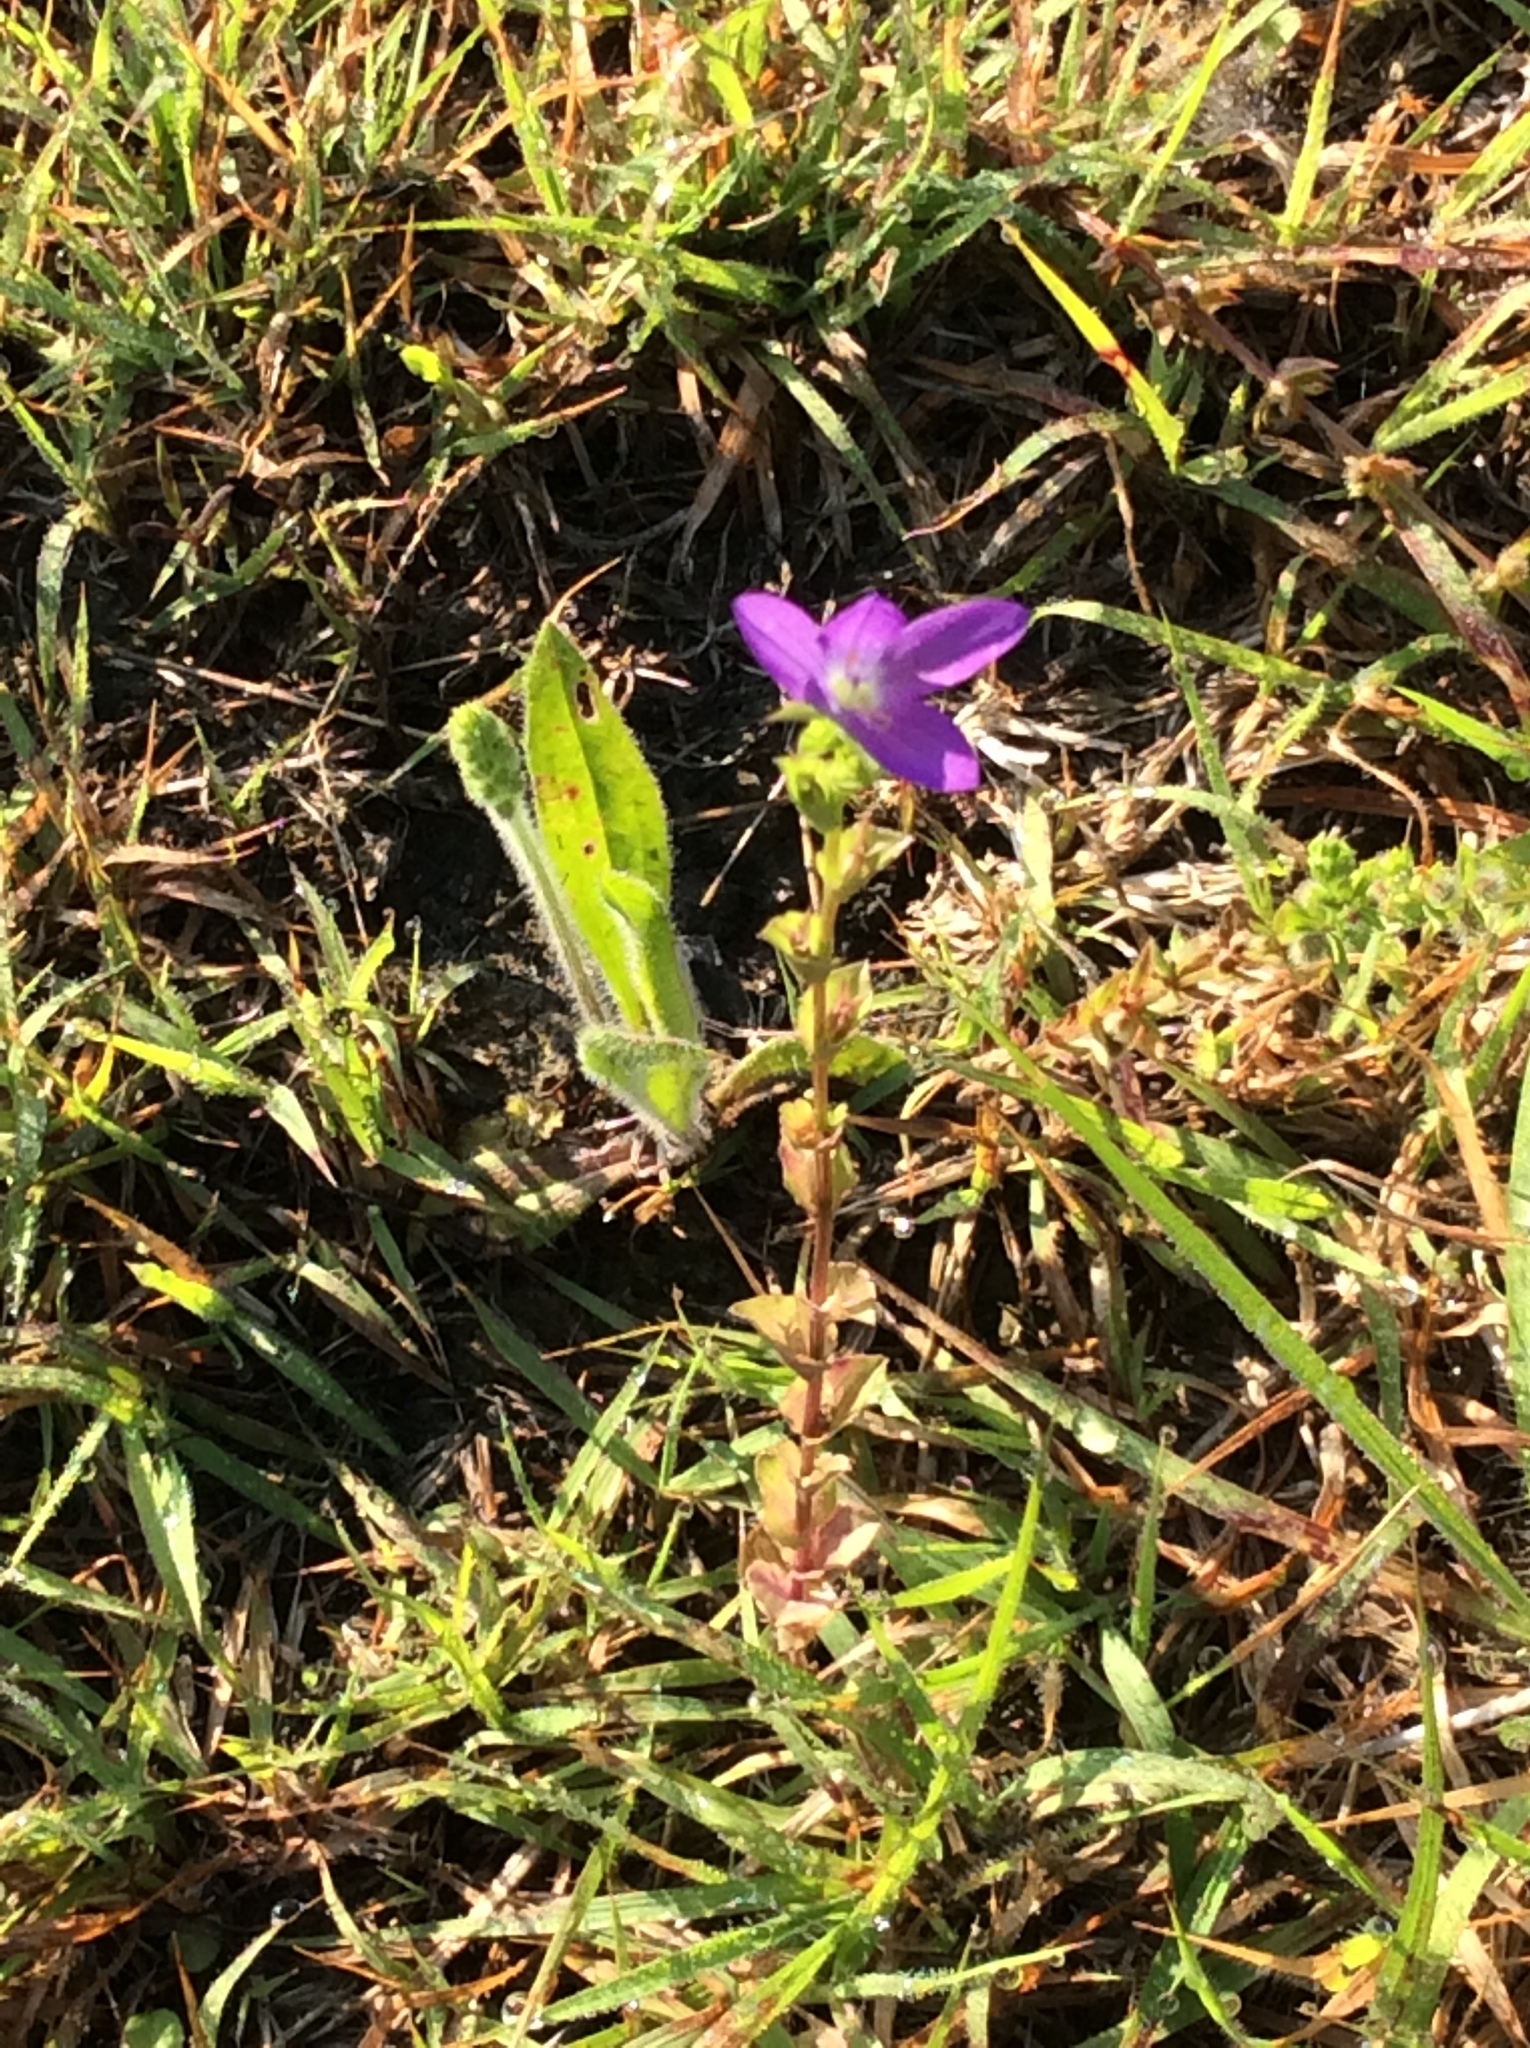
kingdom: Plantae
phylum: Tracheophyta
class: Magnoliopsida
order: Asterales
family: Campanulaceae
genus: Triodanis
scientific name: Triodanis biflora
